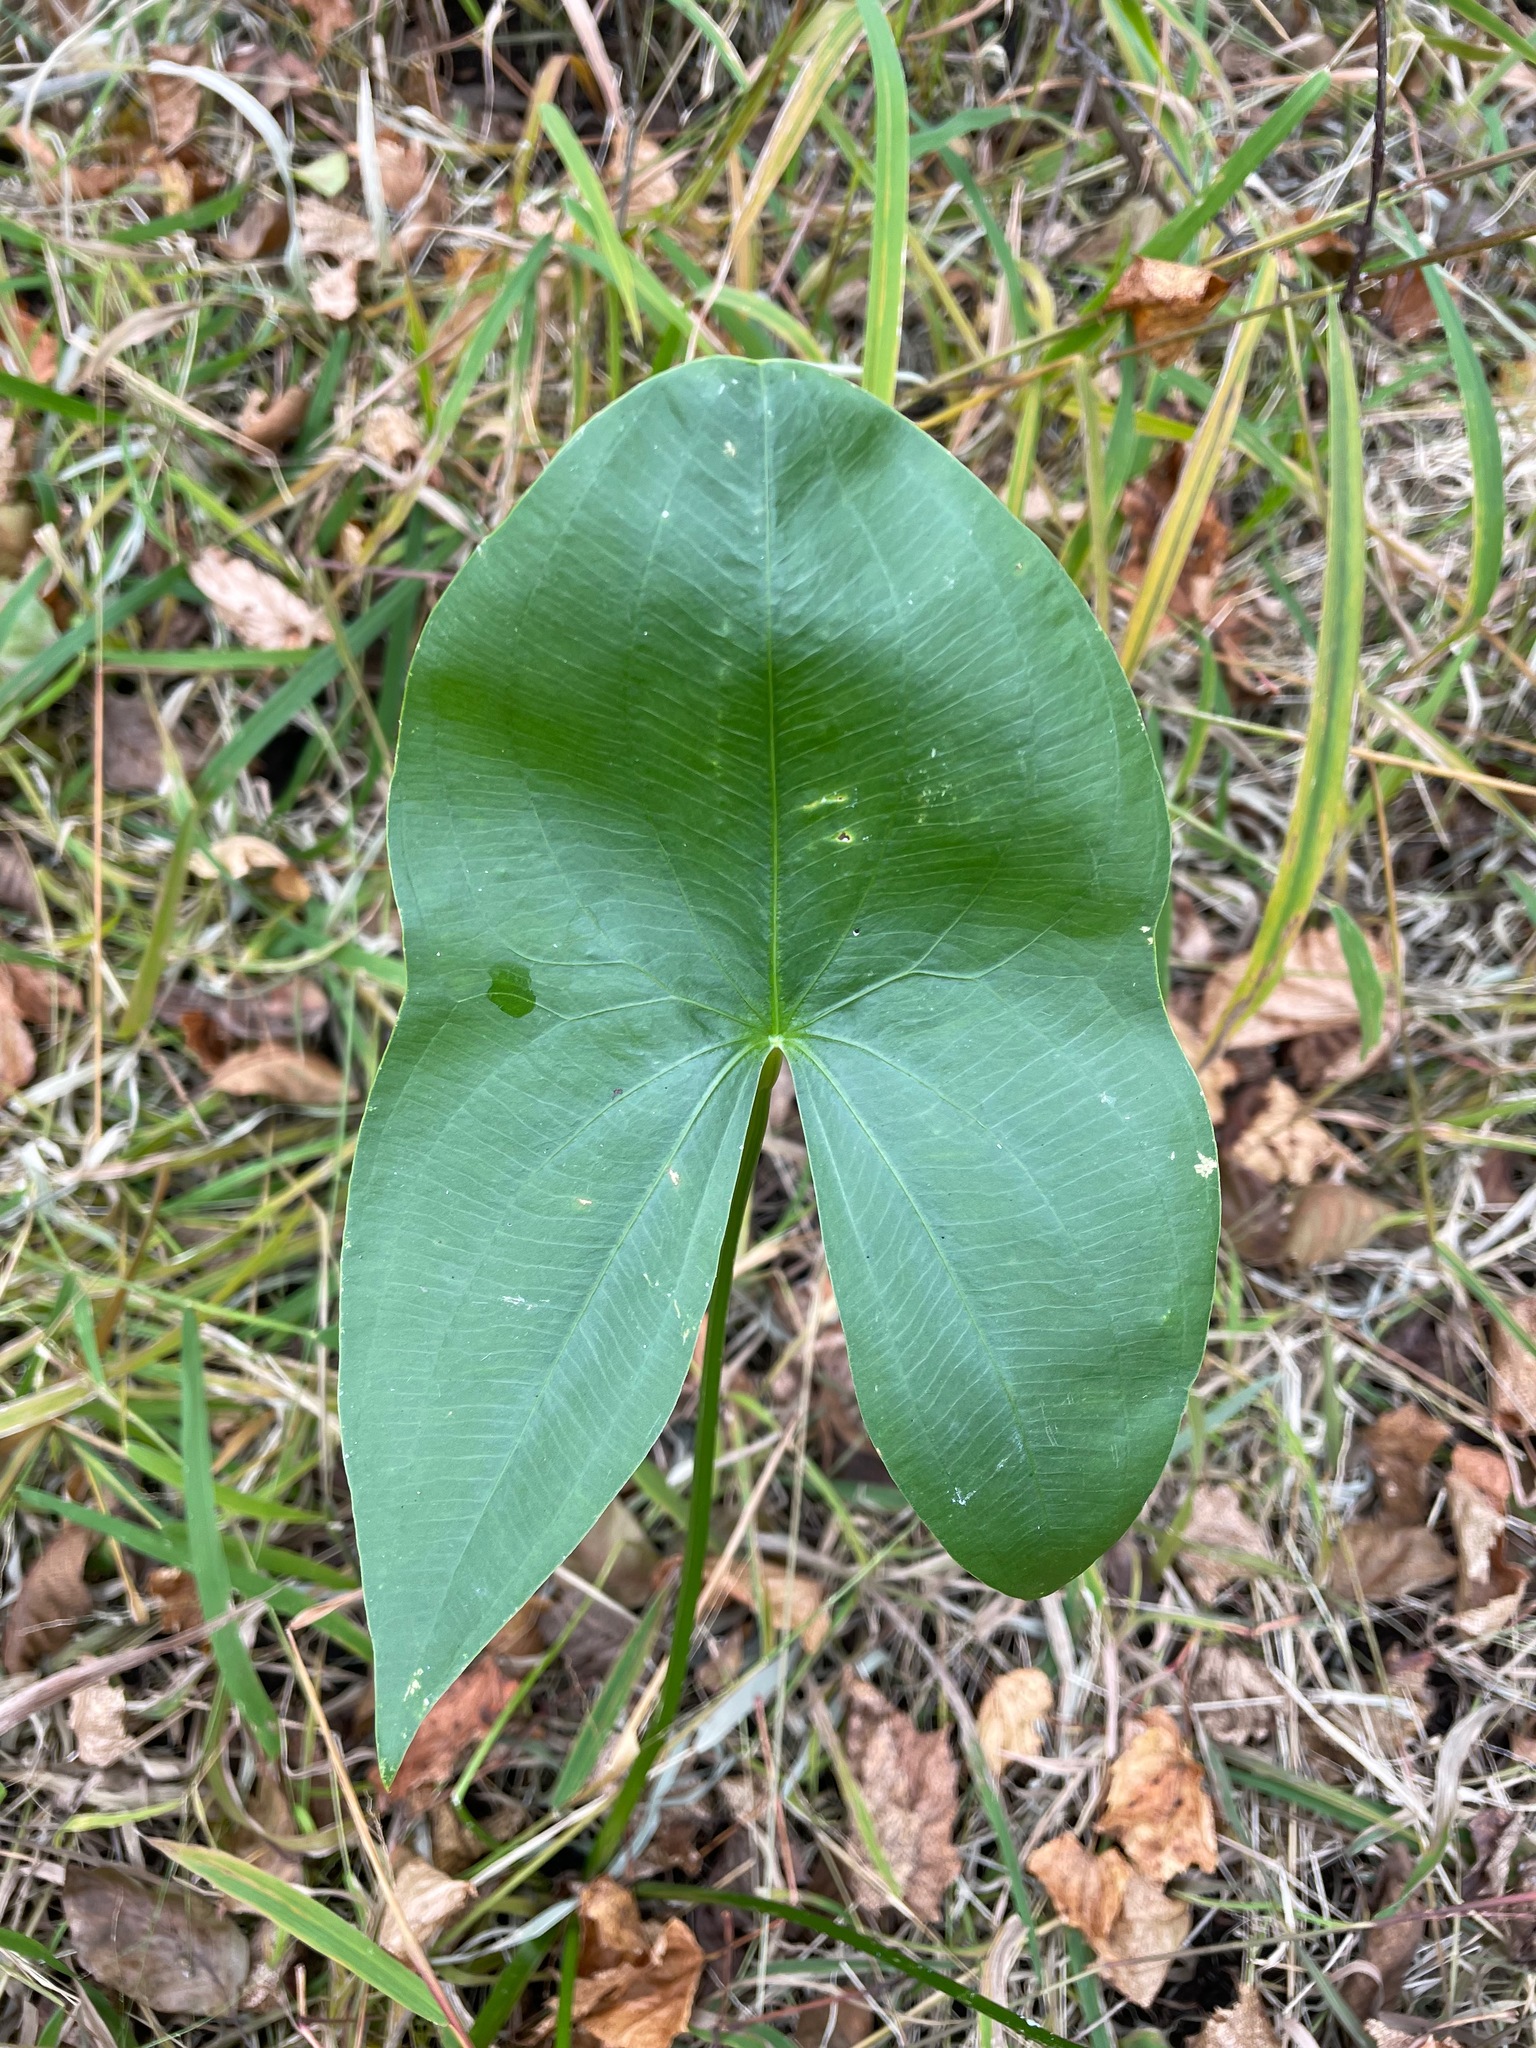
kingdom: Plantae
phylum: Tracheophyta
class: Liliopsida
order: Alismatales
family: Alismataceae
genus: Sagittaria
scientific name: Sagittaria latifolia
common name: Duck-potato
